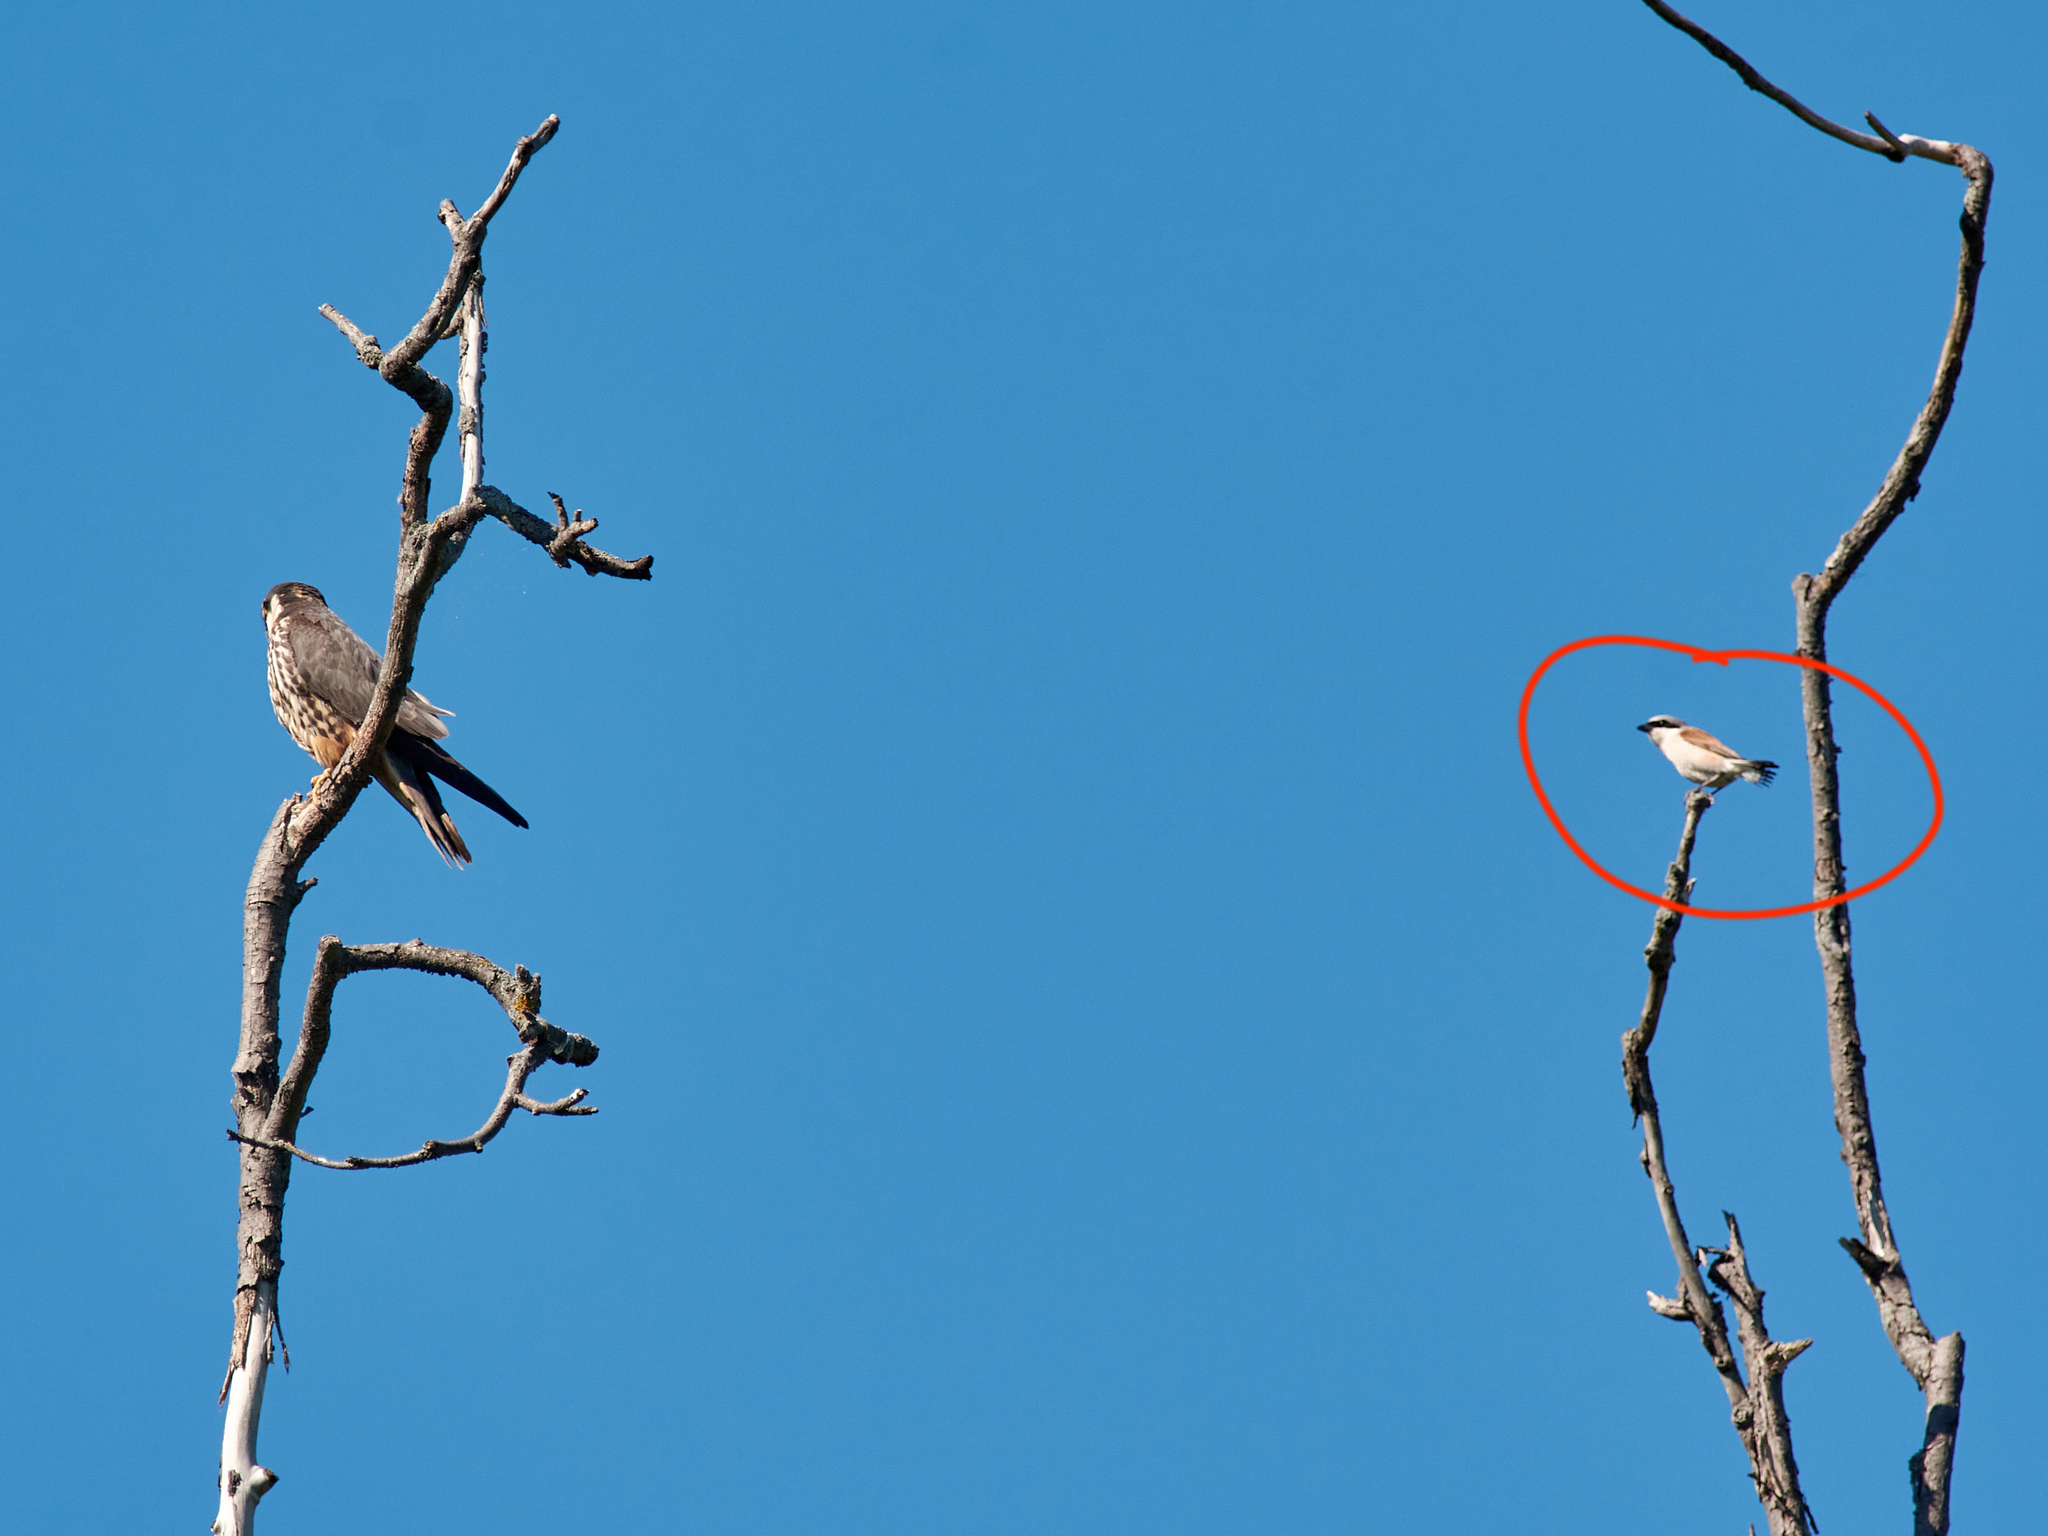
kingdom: Animalia
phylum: Chordata
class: Aves
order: Passeriformes
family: Laniidae
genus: Lanius
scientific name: Lanius collurio
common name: Red-backed shrike
